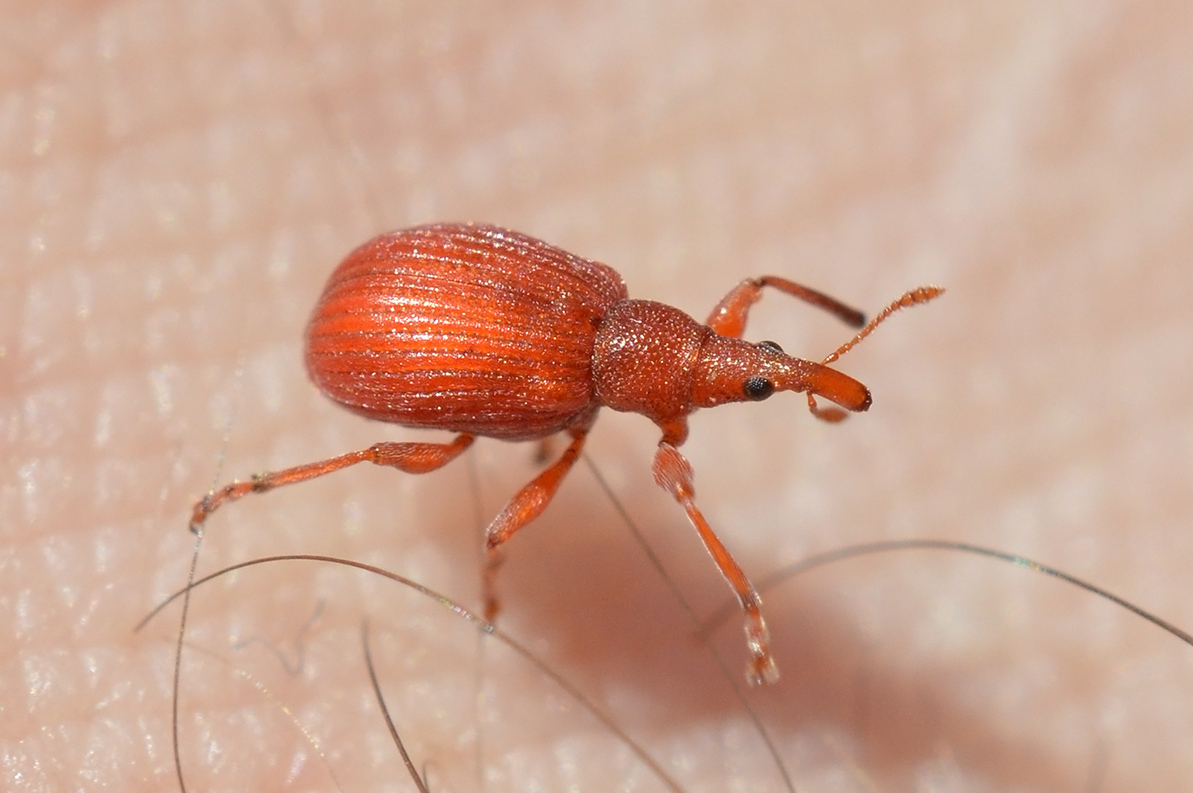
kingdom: Animalia
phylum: Arthropoda
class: Insecta
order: Coleoptera
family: Apionidae
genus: Apion
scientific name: Apion frumentarium
